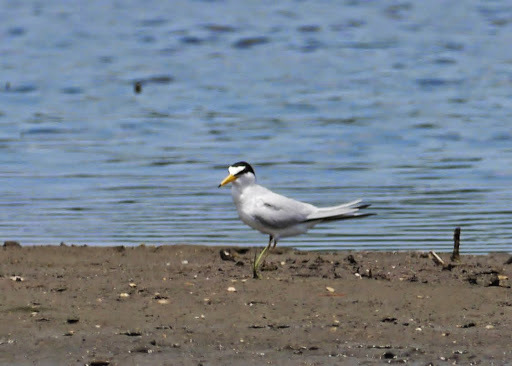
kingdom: Animalia
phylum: Chordata
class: Aves
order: Charadriiformes
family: Laridae
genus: Sternula
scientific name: Sternula antillarum
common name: Least tern
